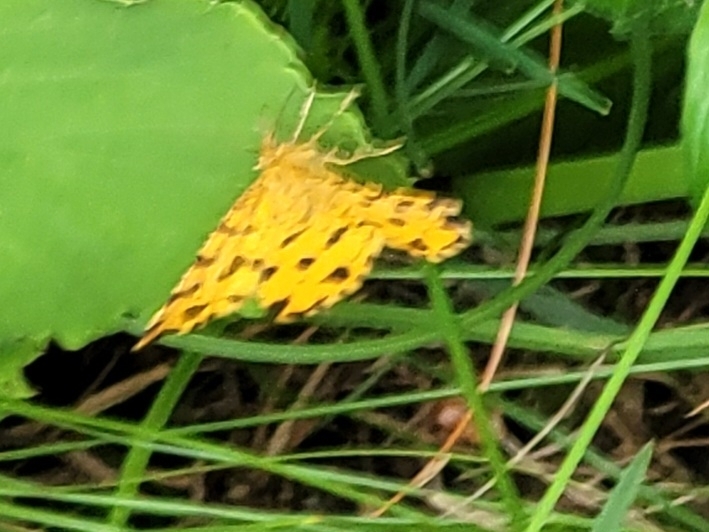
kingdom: Animalia
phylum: Arthropoda
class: Insecta
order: Lepidoptera
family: Geometridae
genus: Pseudopanthera
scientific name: Pseudopanthera macularia
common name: Speckled yellow
